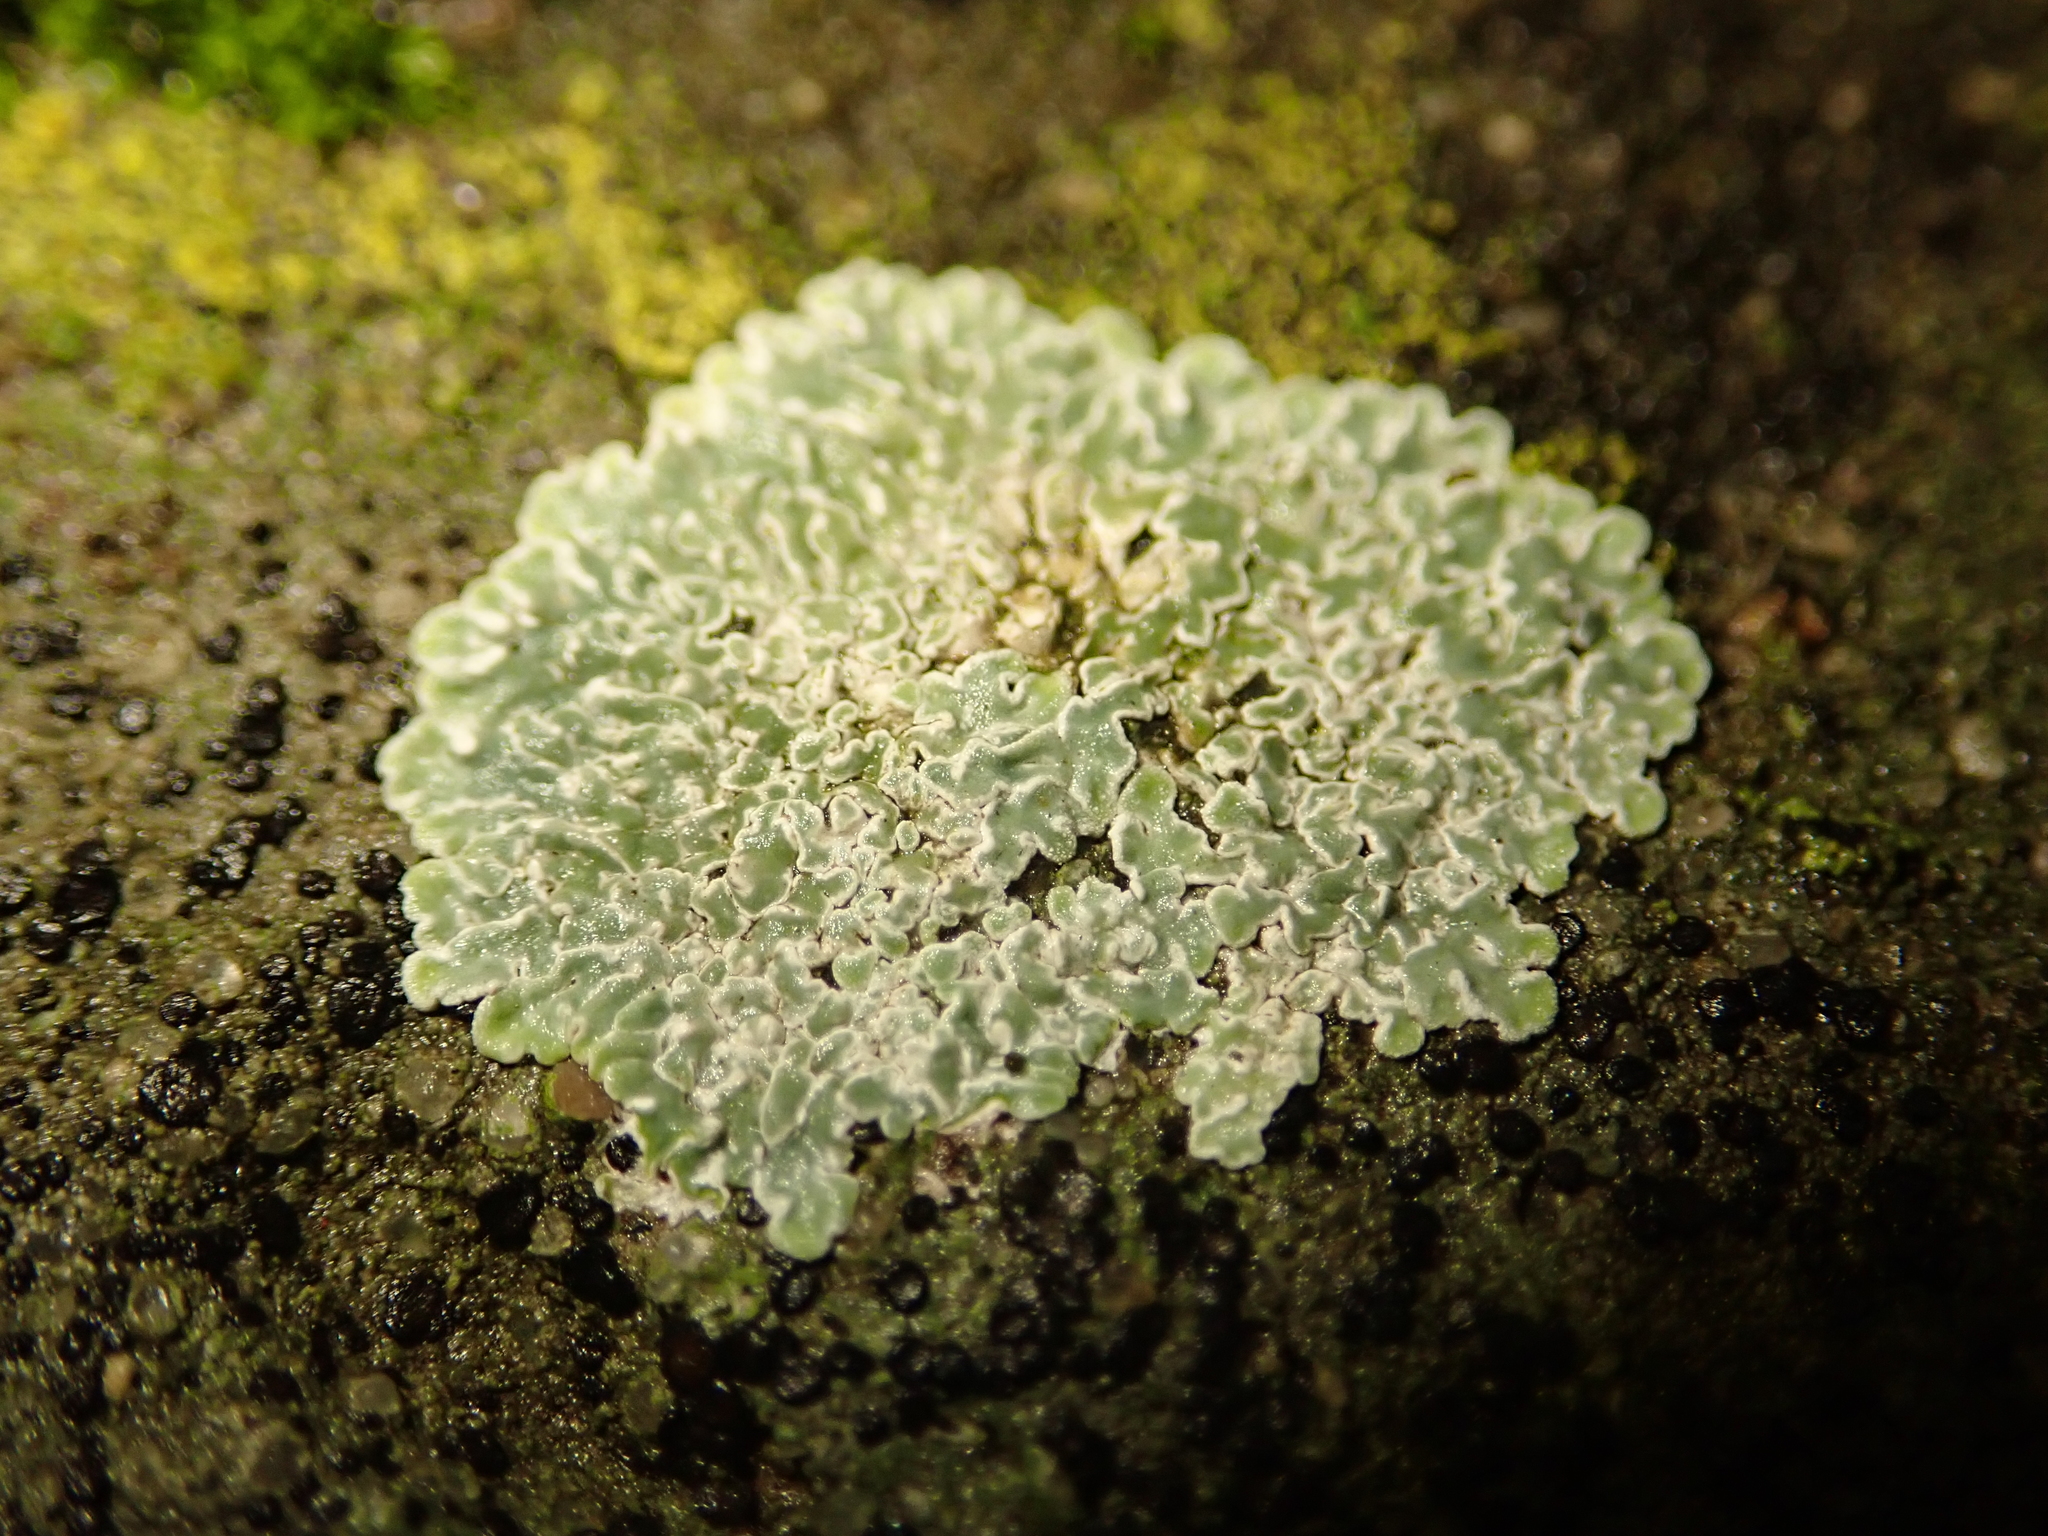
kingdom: Fungi
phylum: Ascomycota
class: Lecanoromycetes
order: Lecanorales
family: Lecanoraceae
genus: Protoparmeliopsis
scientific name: Protoparmeliopsis muralis
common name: Stonewall rim lichen
